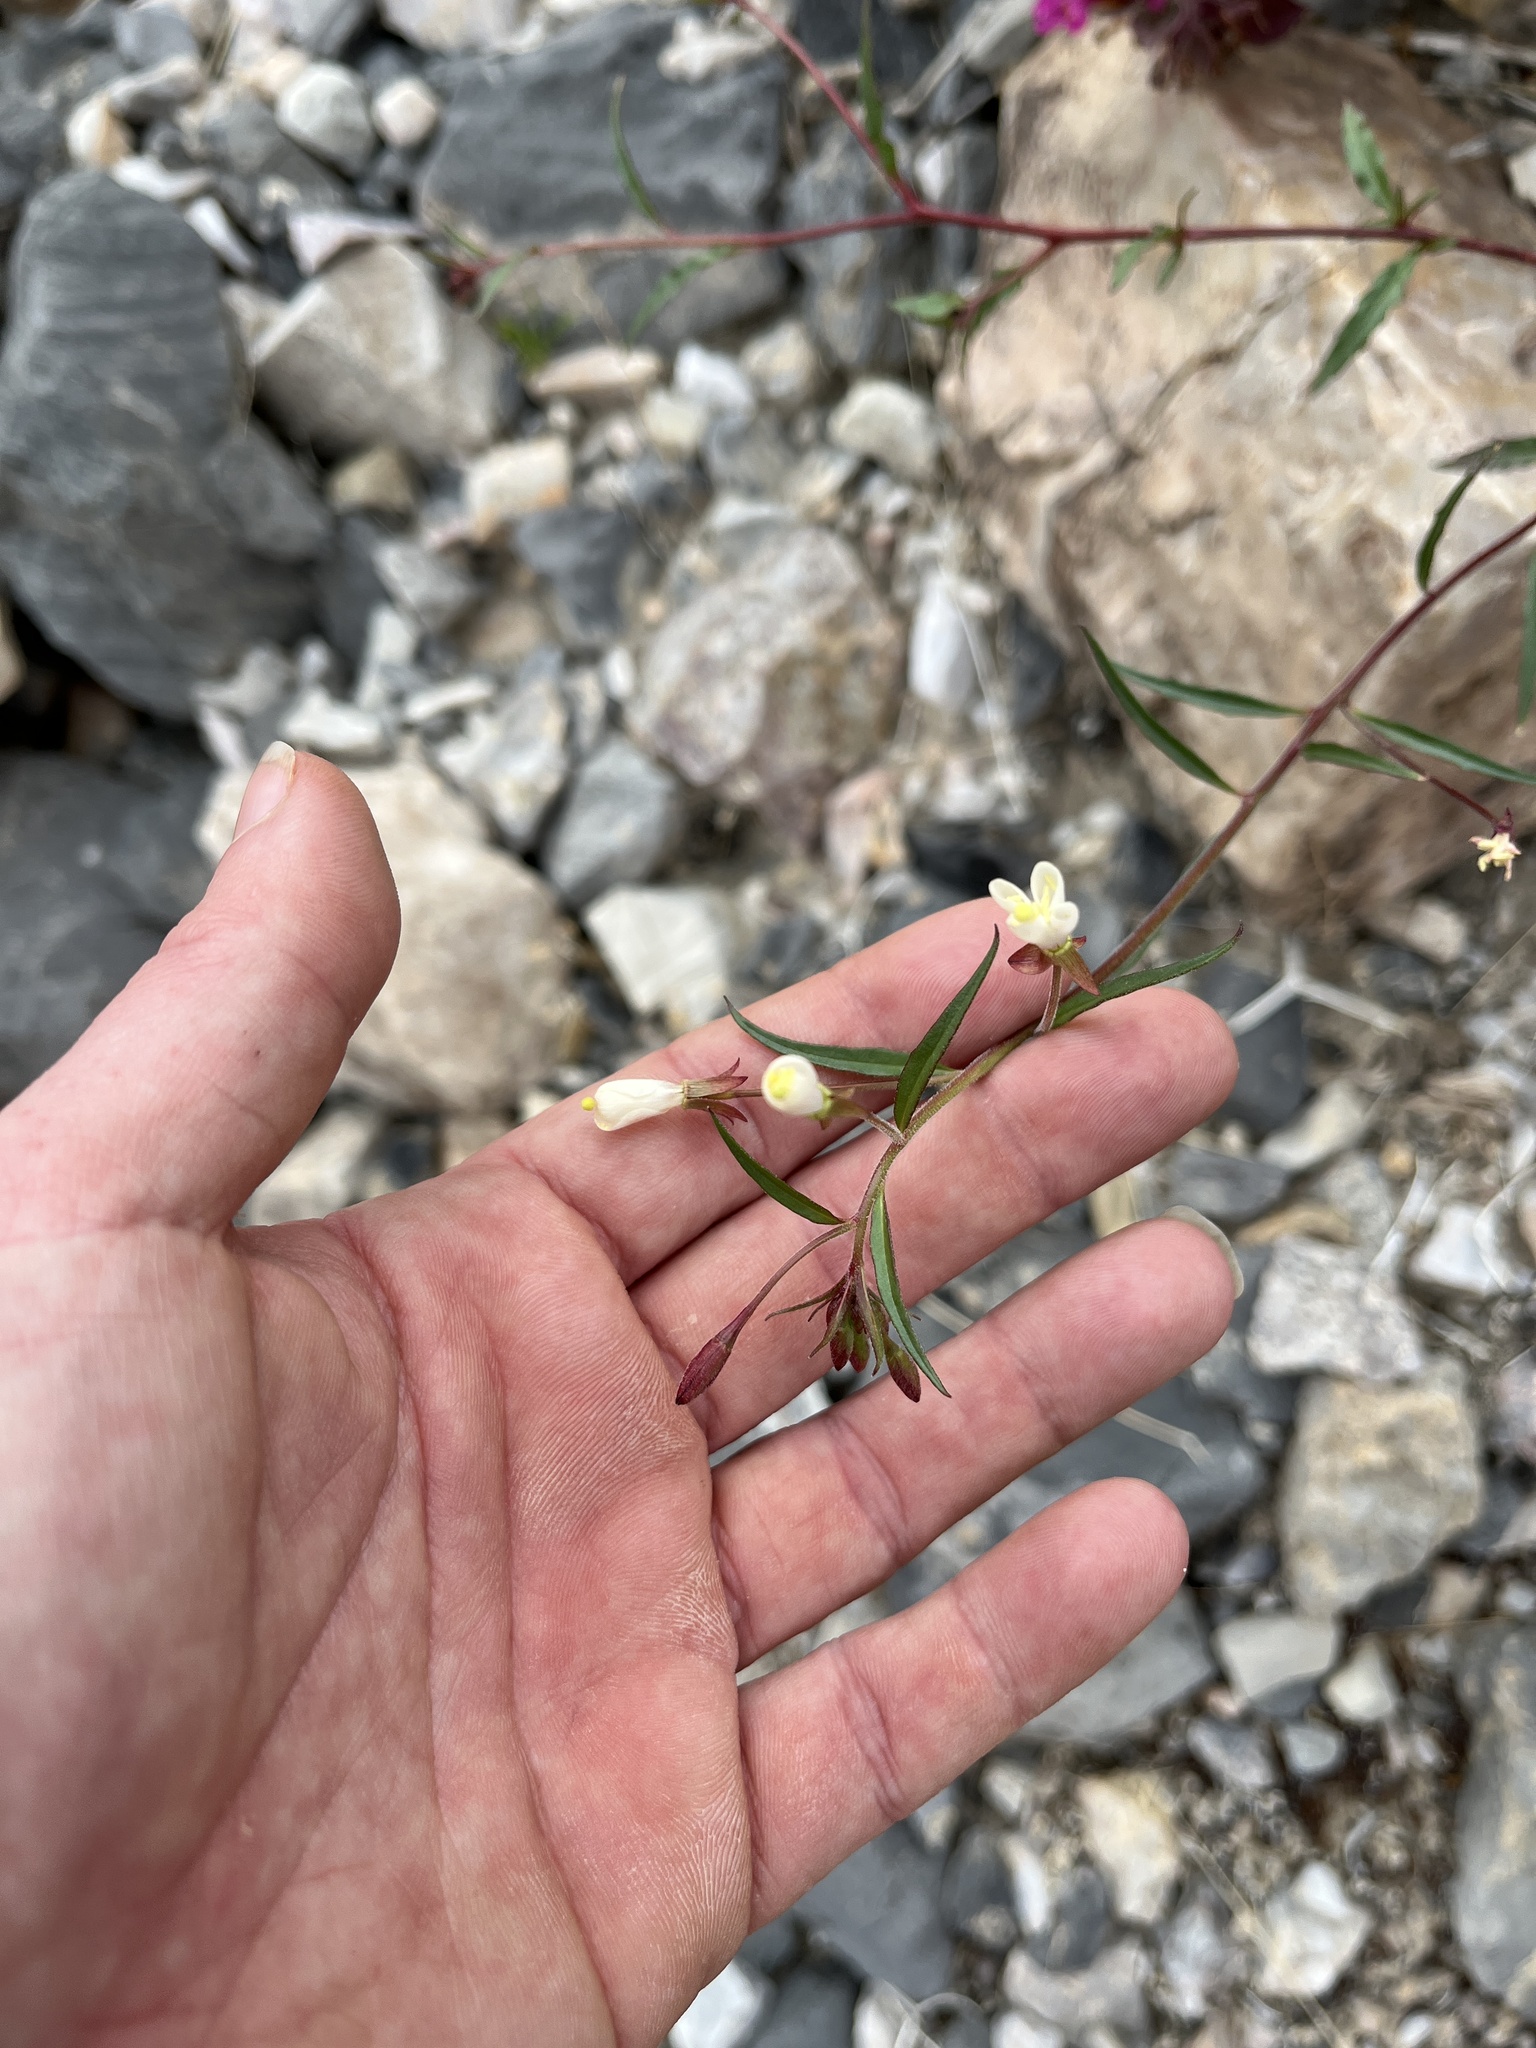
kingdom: Plantae
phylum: Tracheophyta
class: Magnoliopsida
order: Myrtales
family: Onagraceae
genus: Eremothera
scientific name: Eremothera refracta
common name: Narrowleaf suncup
